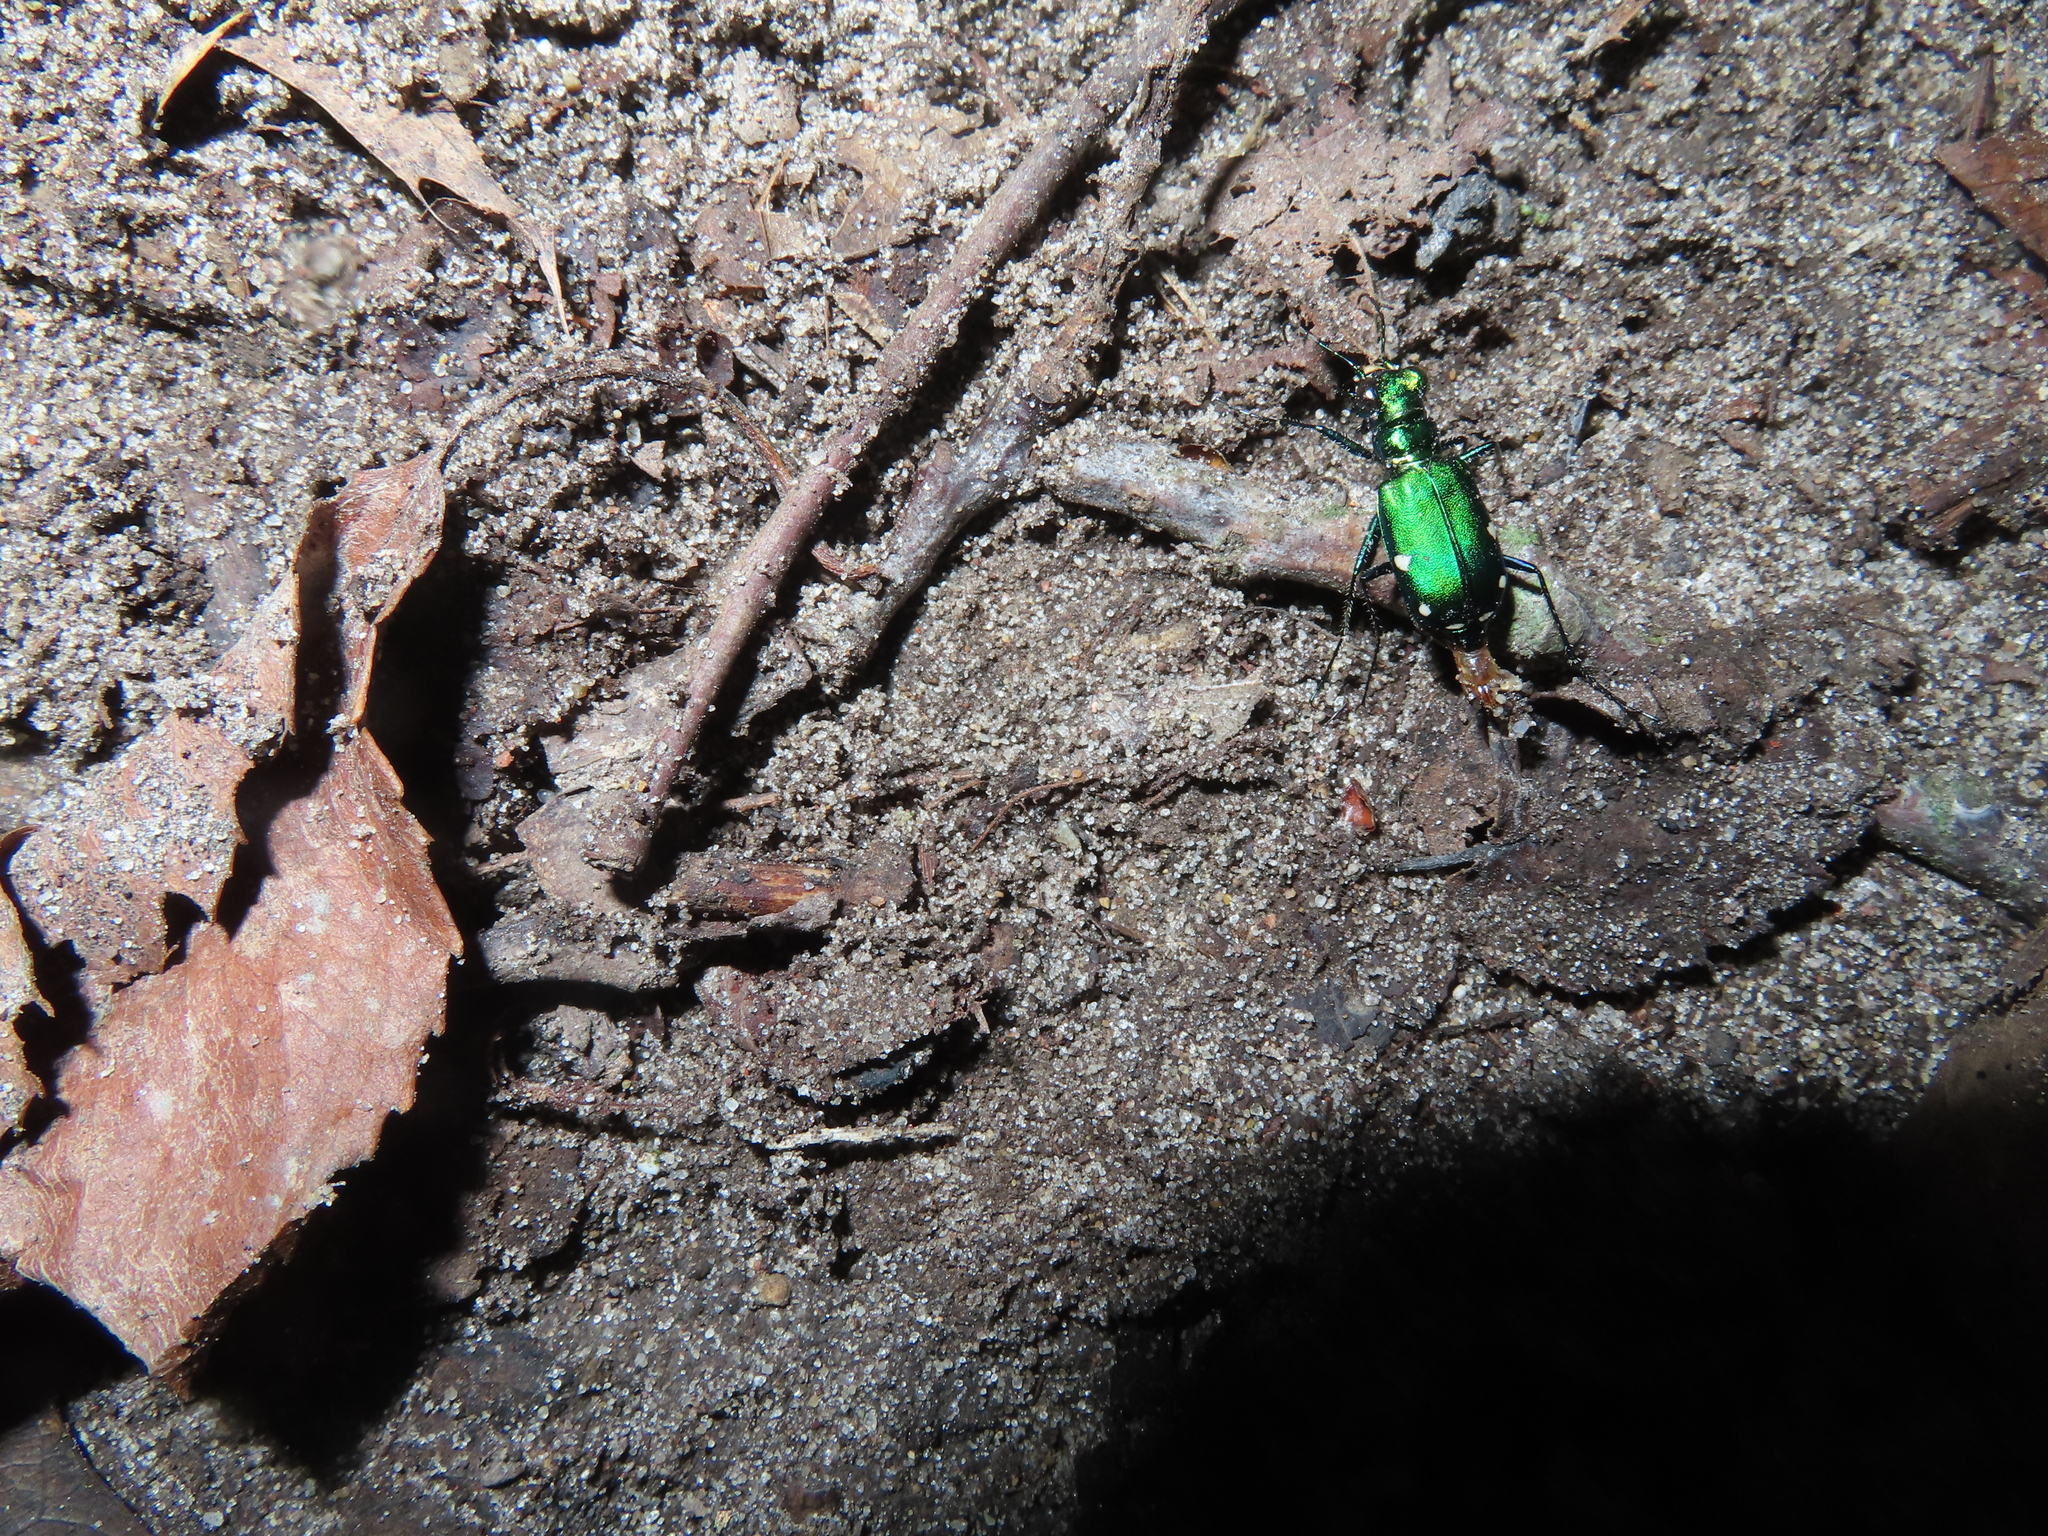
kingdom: Animalia
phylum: Arthropoda
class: Insecta
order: Coleoptera
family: Carabidae
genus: Cicindela
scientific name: Cicindela sexguttata
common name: Six-spotted tiger beetle
